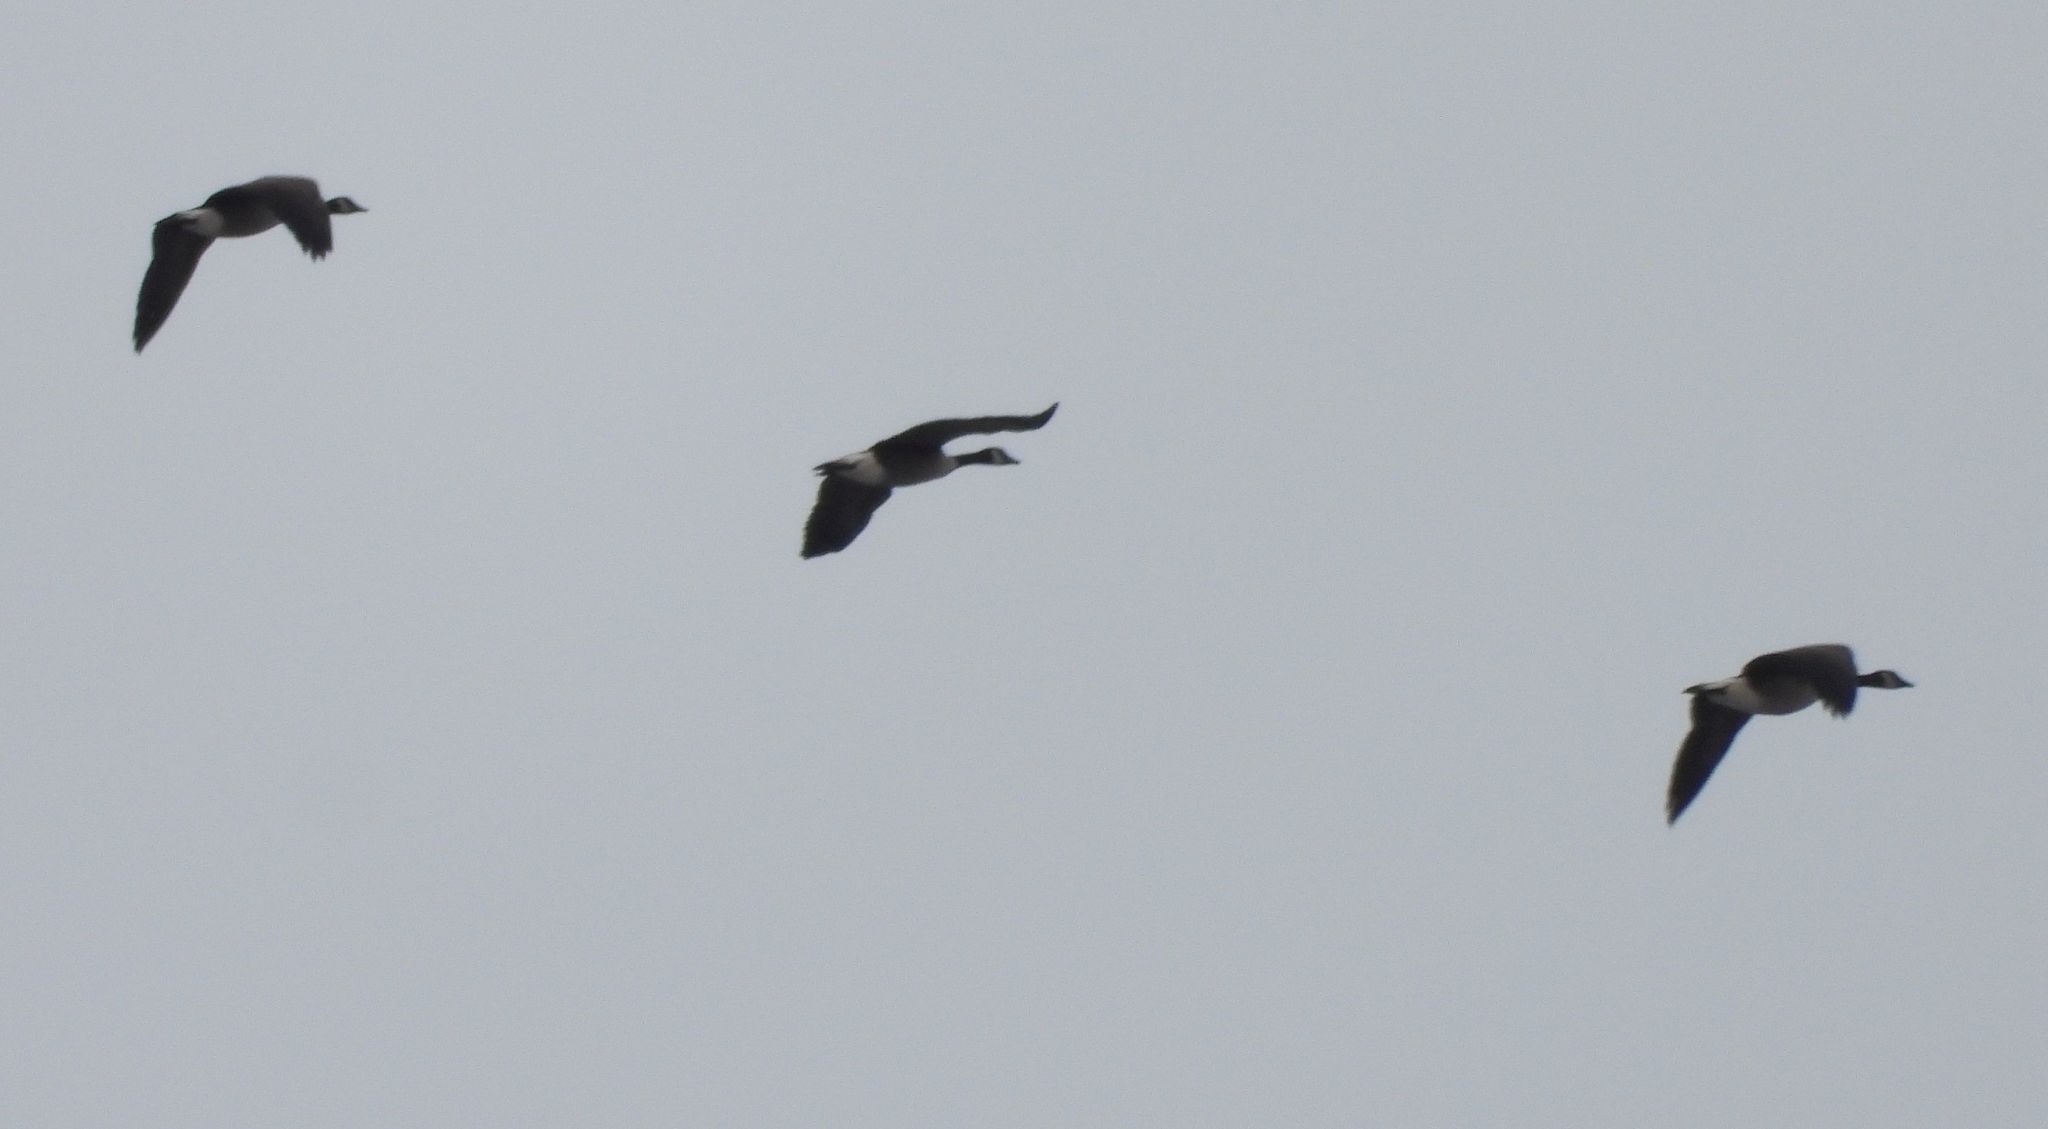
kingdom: Animalia
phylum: Chordata
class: Aves
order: Anseriformes
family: Anatidae
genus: Branta
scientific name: Branta canadensis
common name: Canada goose
